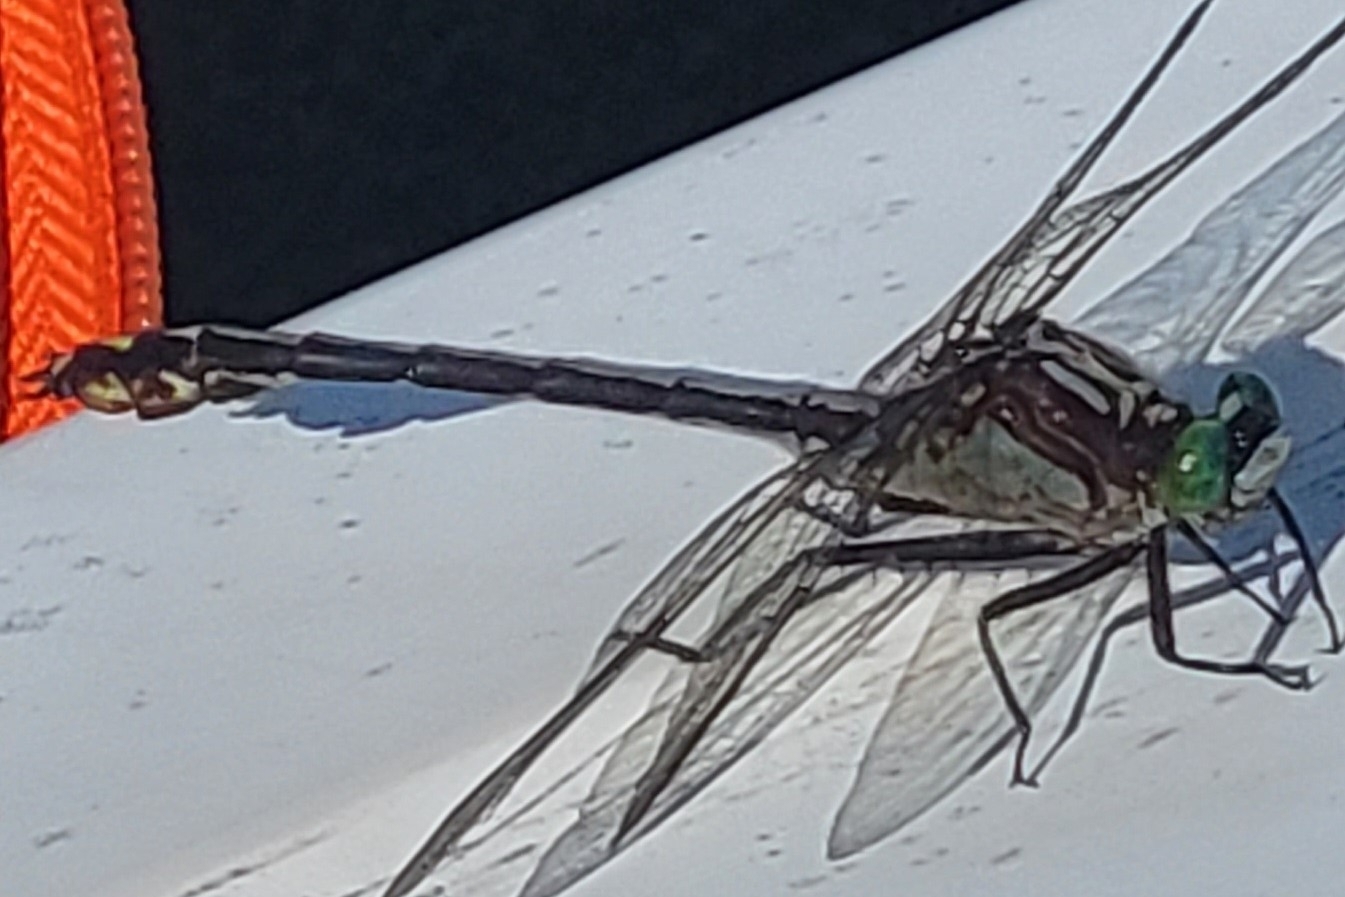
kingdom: Animalia
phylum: Arthropoda
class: Insecta
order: Odonata
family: Gomphidae
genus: Dromogomphus
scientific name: Dromogomphus spinosus
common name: Black-shouldered spinyleg
